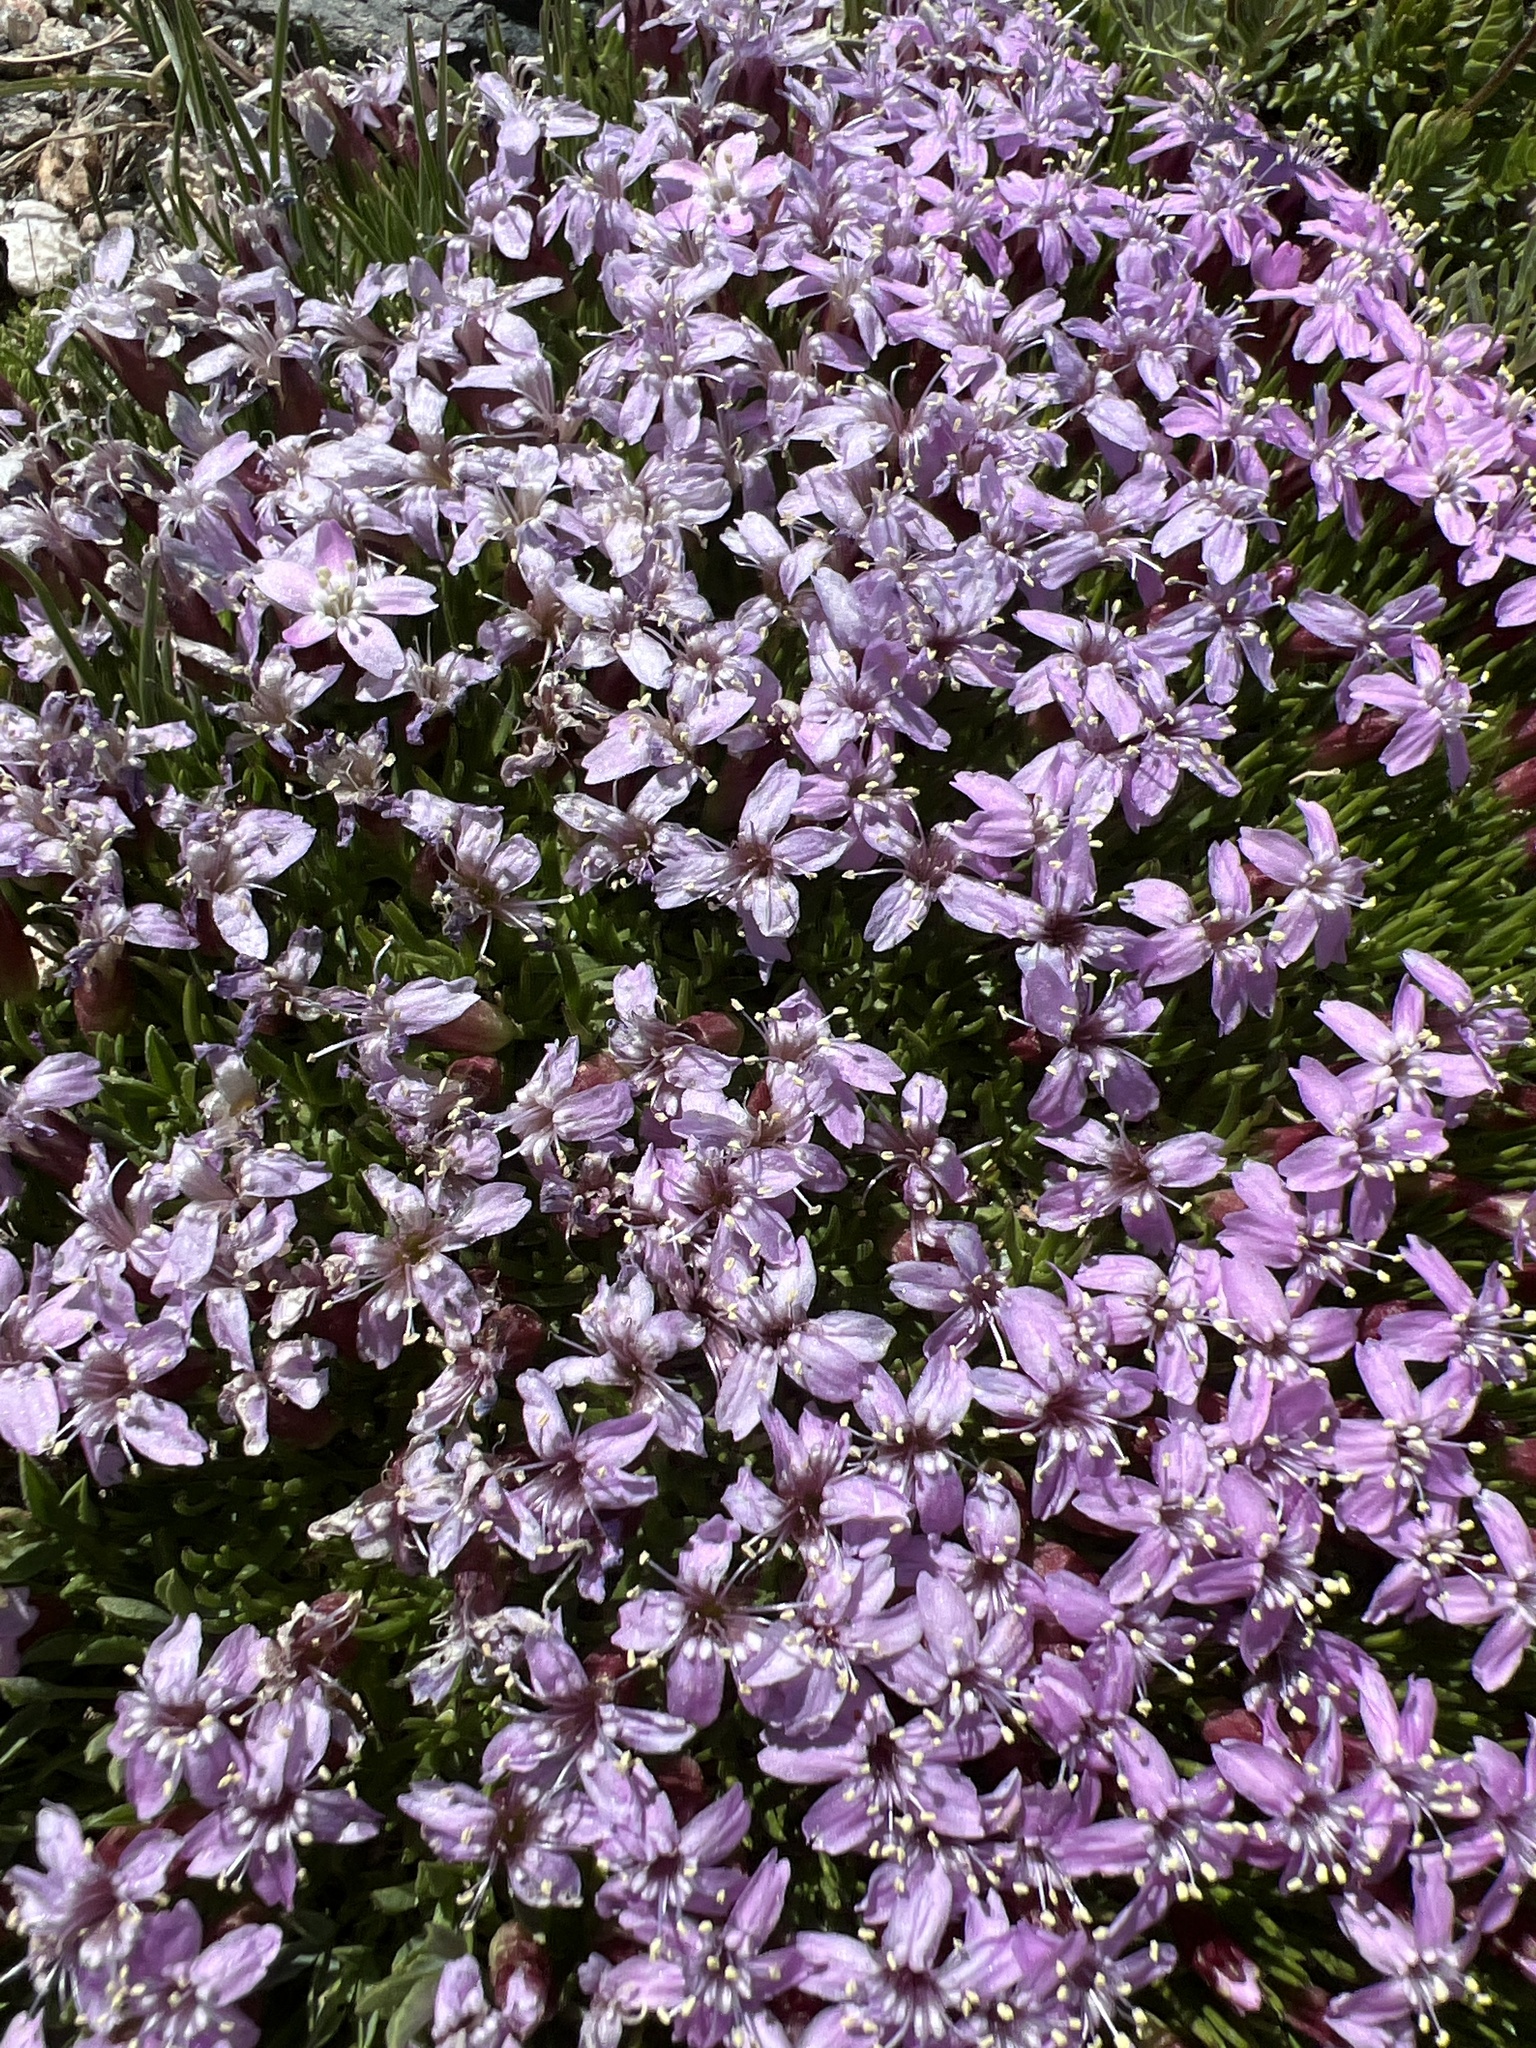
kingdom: Plantae
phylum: Tracheophyta
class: Magnoliopsida
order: Caryophyllales
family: Caryophyllaceae
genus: Silene
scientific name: Silene acaulis
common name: Moss campion
